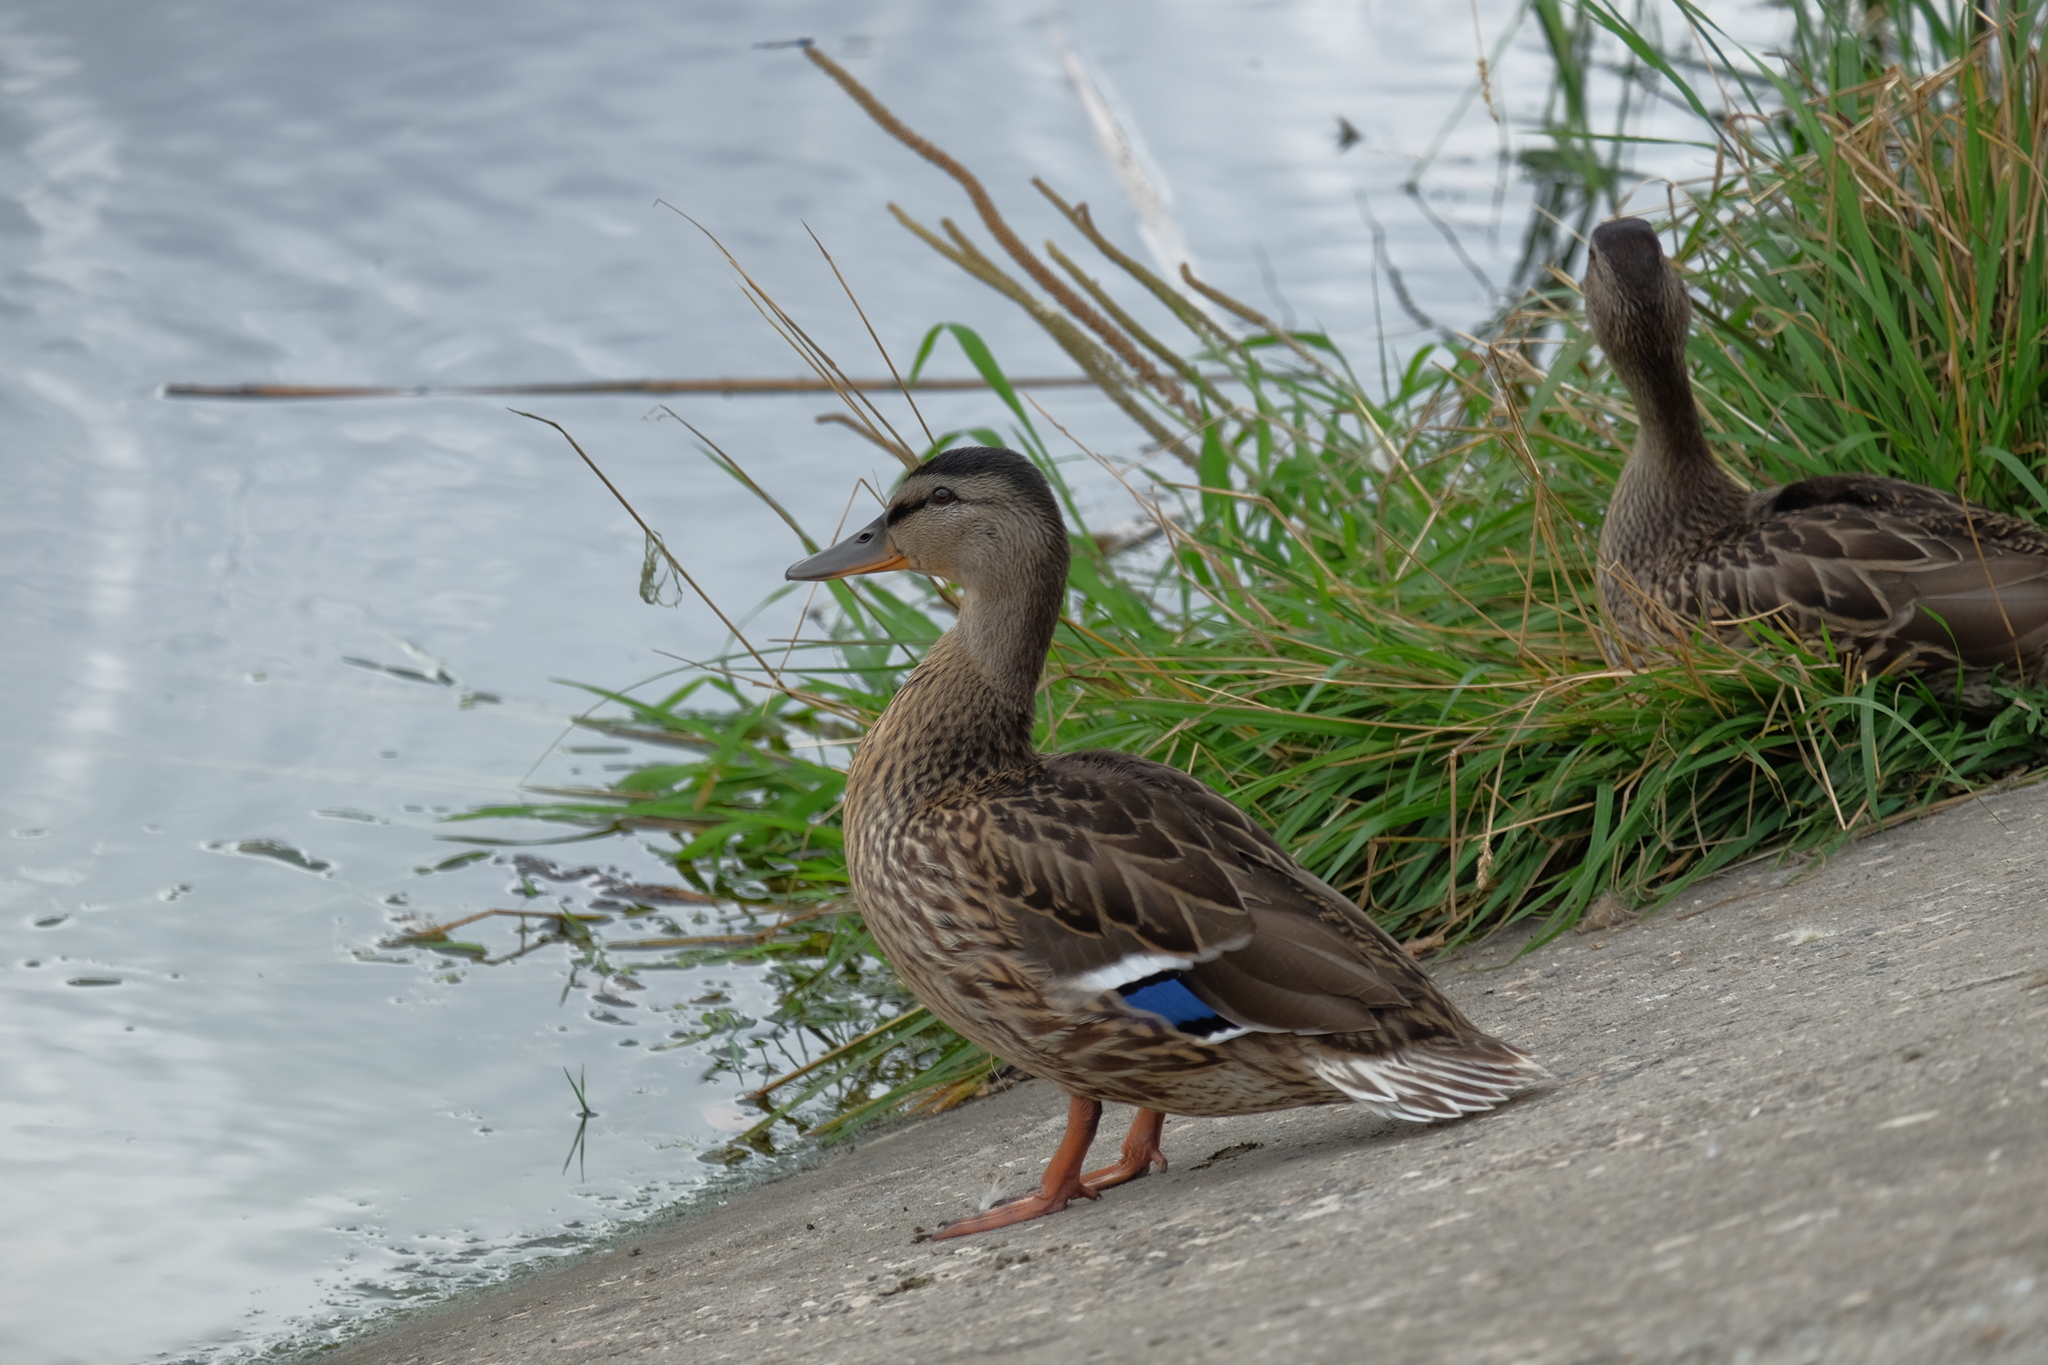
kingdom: Animalia
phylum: Chordata
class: Aves
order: Anseriformes
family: Anatidae
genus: Anas
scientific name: Anas platyrhynchos
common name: Mallard
